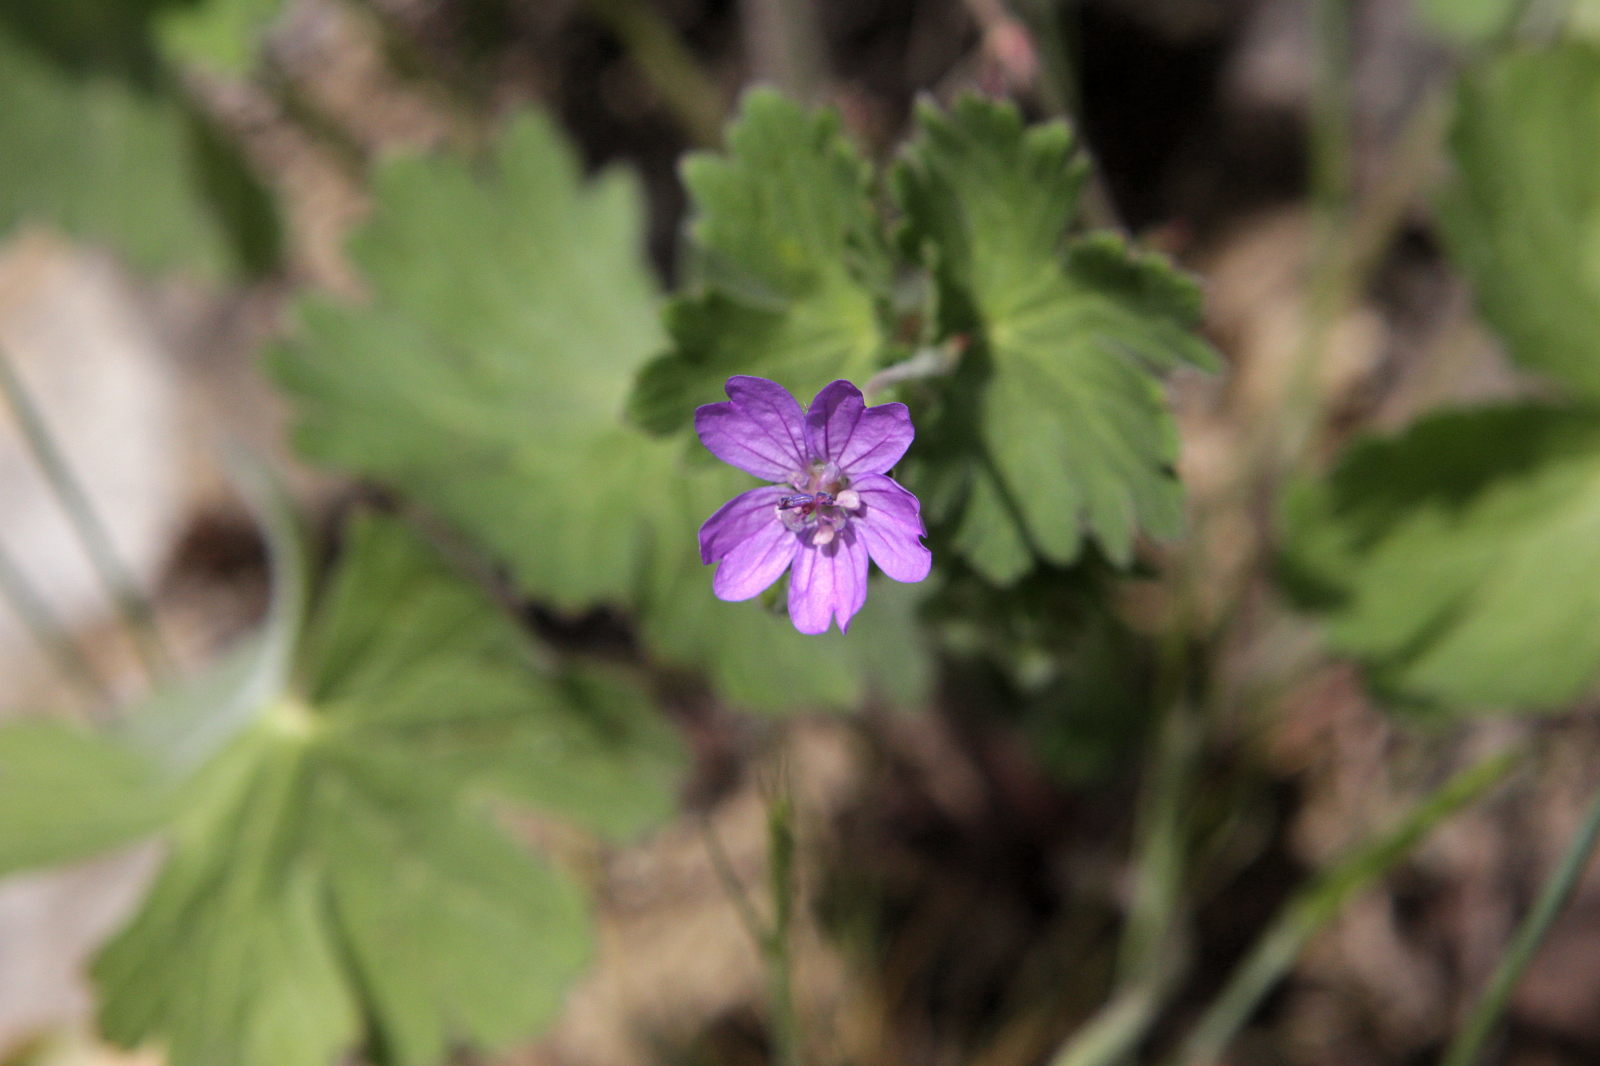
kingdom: Plantae
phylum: Tracheophyta
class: Magnoliopsida
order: Geraniales
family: Geraniaceae
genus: Geranium
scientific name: Geranium molle
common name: Dove's-foot crane's-bill
